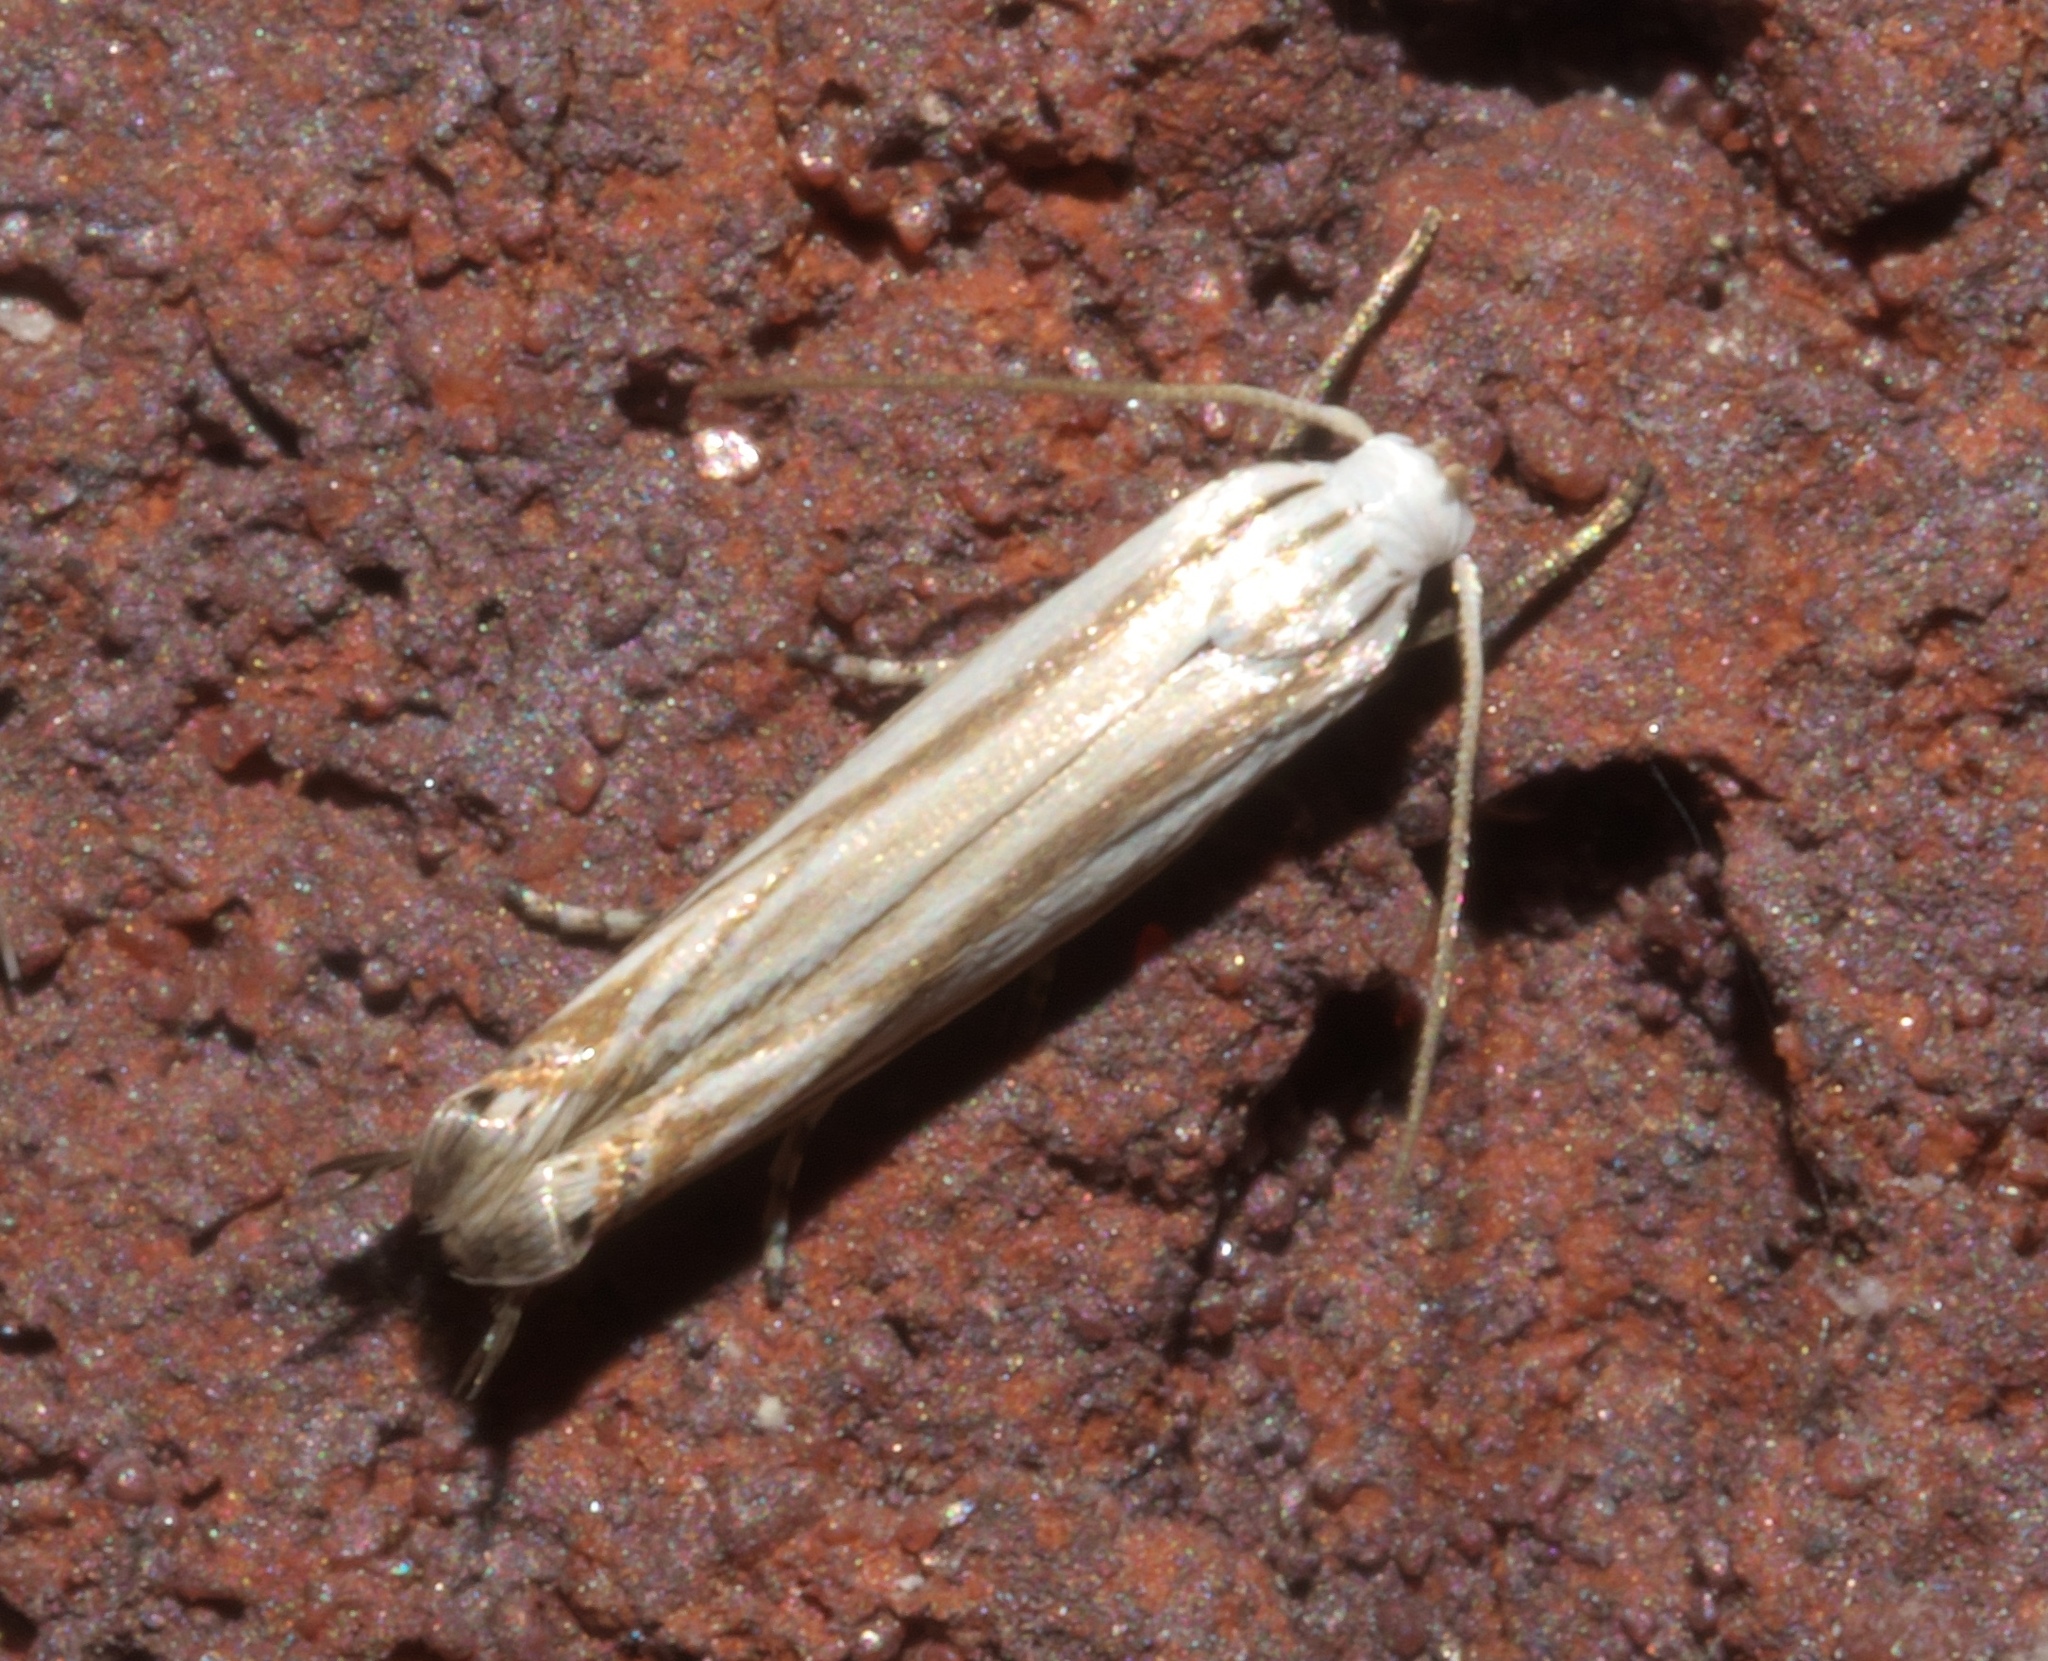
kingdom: Animalia
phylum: Arthropoda
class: Insecta
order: Lepidoptera
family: Gelechiidae
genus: Polyhymno
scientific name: Polyhymno luteostrigella
